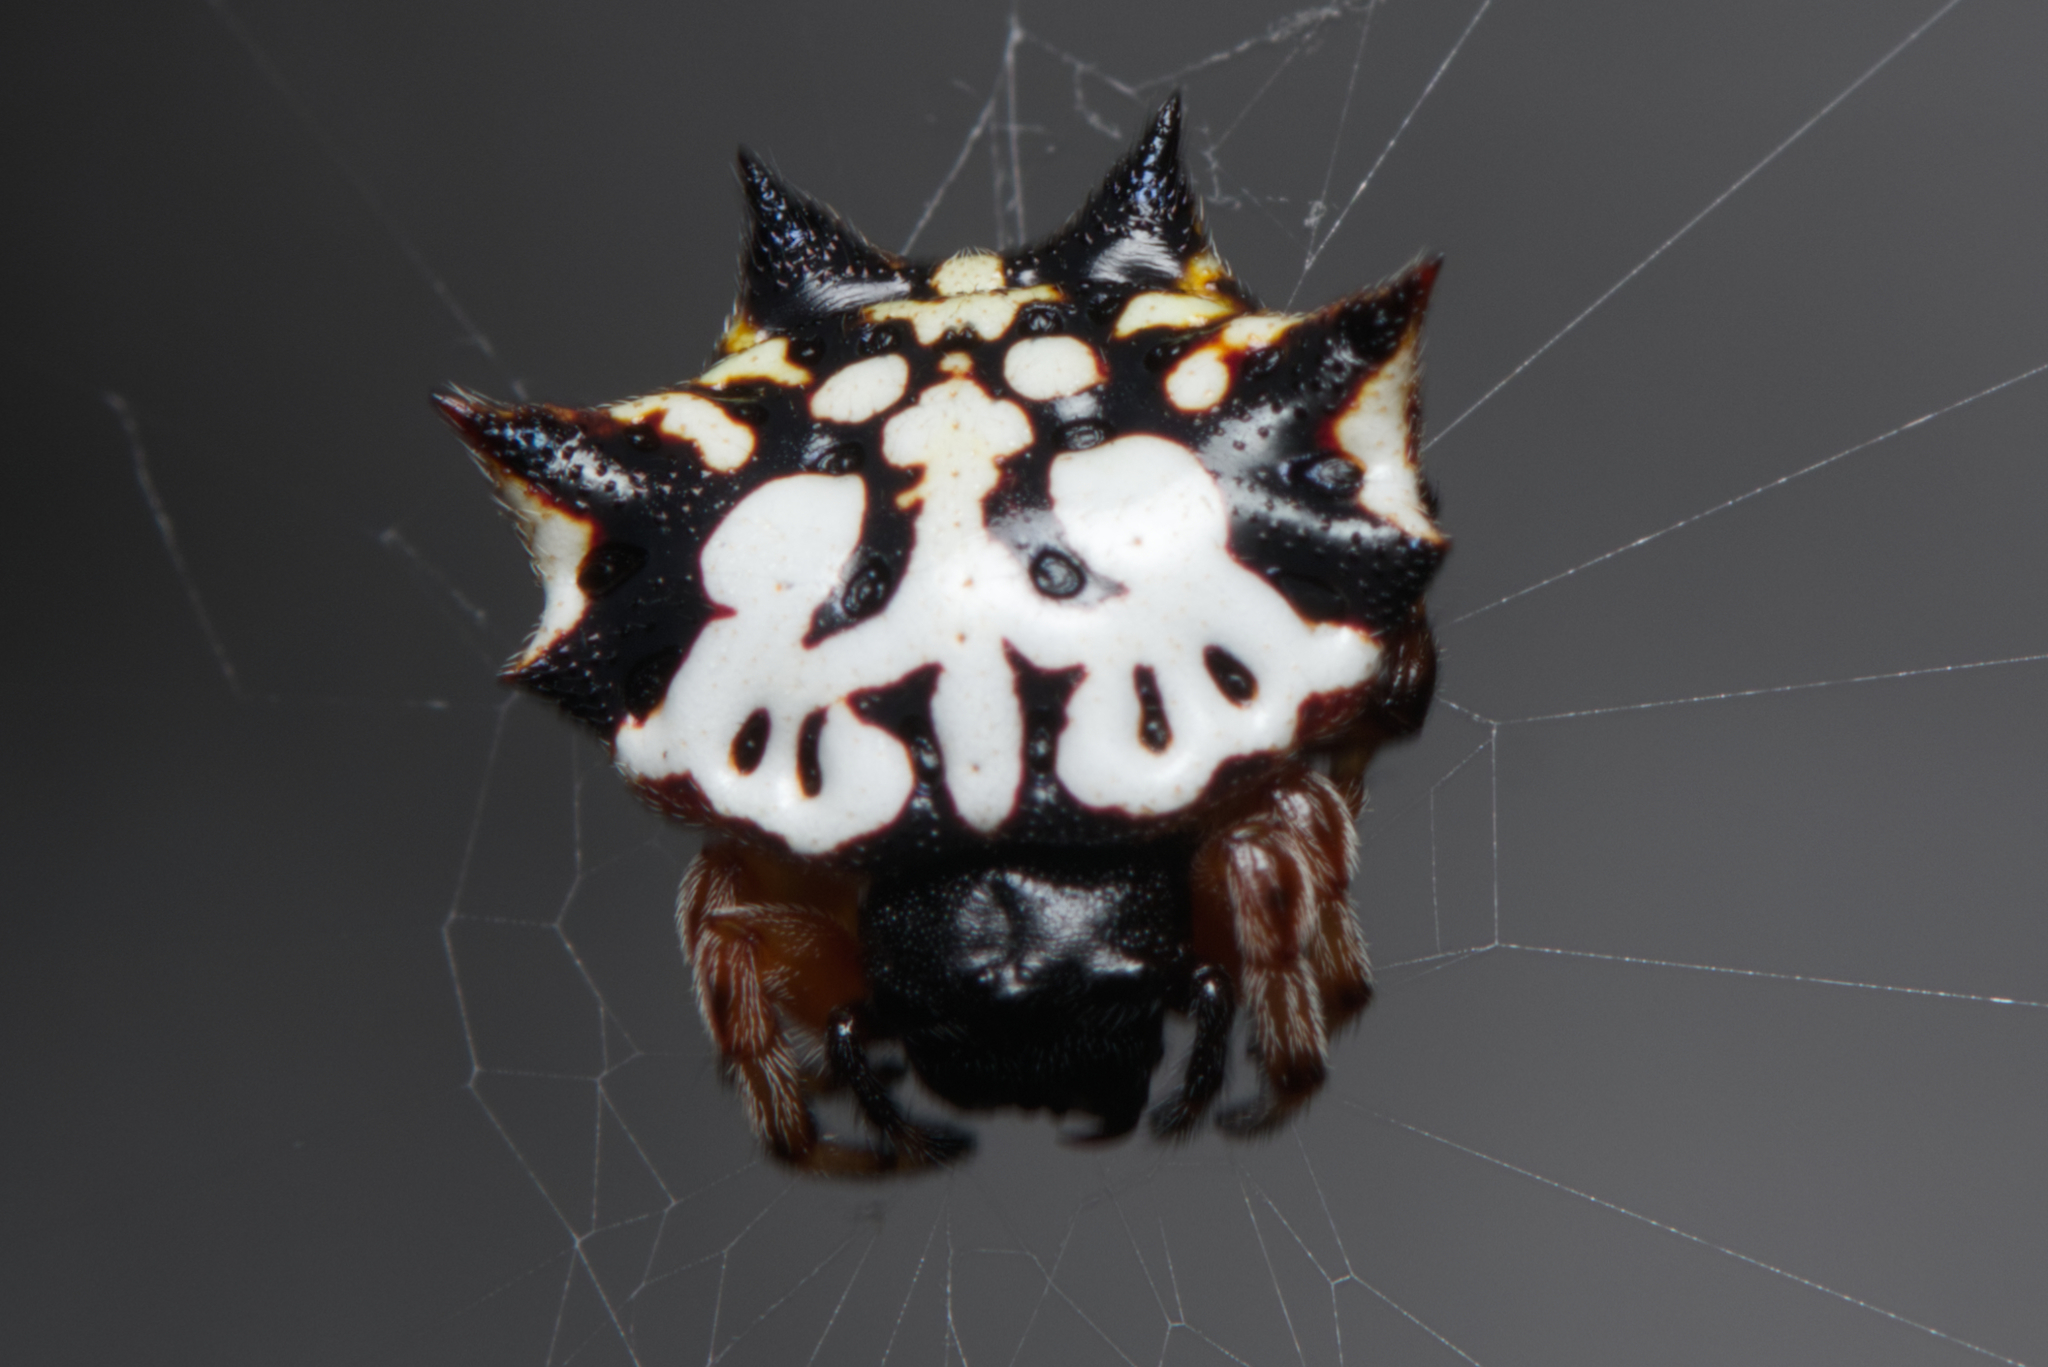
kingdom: Animalia
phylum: Arthropoda
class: Arachnida
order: Araneae
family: Araneidae
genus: Gasteracantha
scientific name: Gasteracantha sacerdotalis
